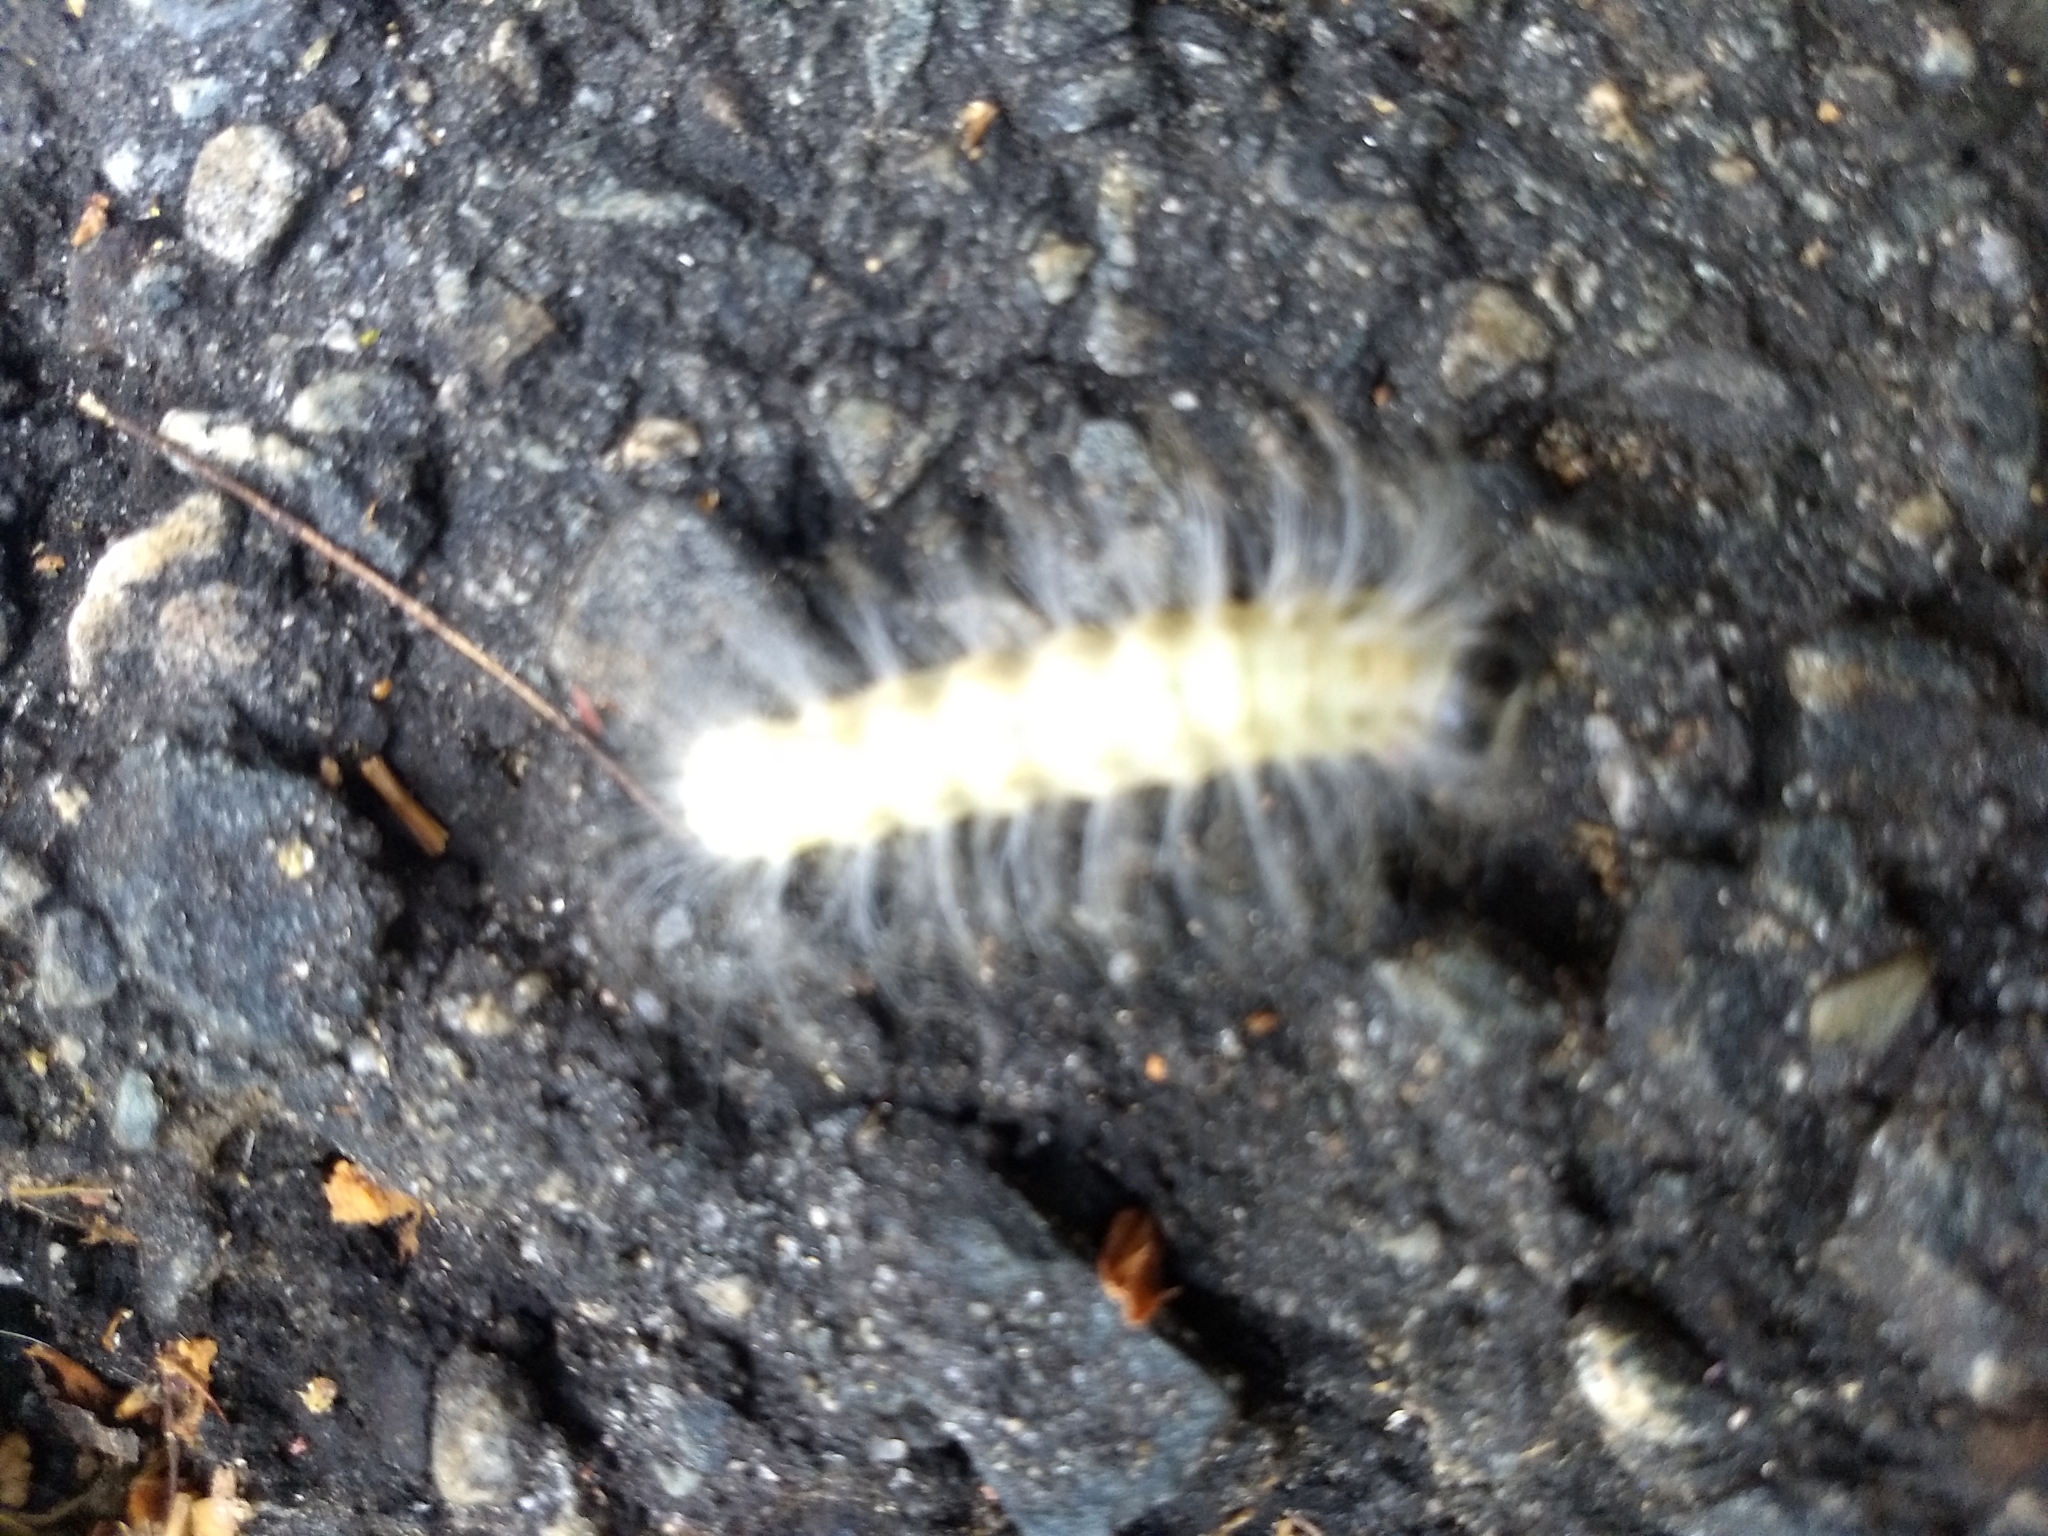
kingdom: Animalia
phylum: Arthropoda
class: Insecta
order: Lepidoptera
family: Noctuidae
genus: Charadra
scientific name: Charadra deridens
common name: Marbled tuffet
